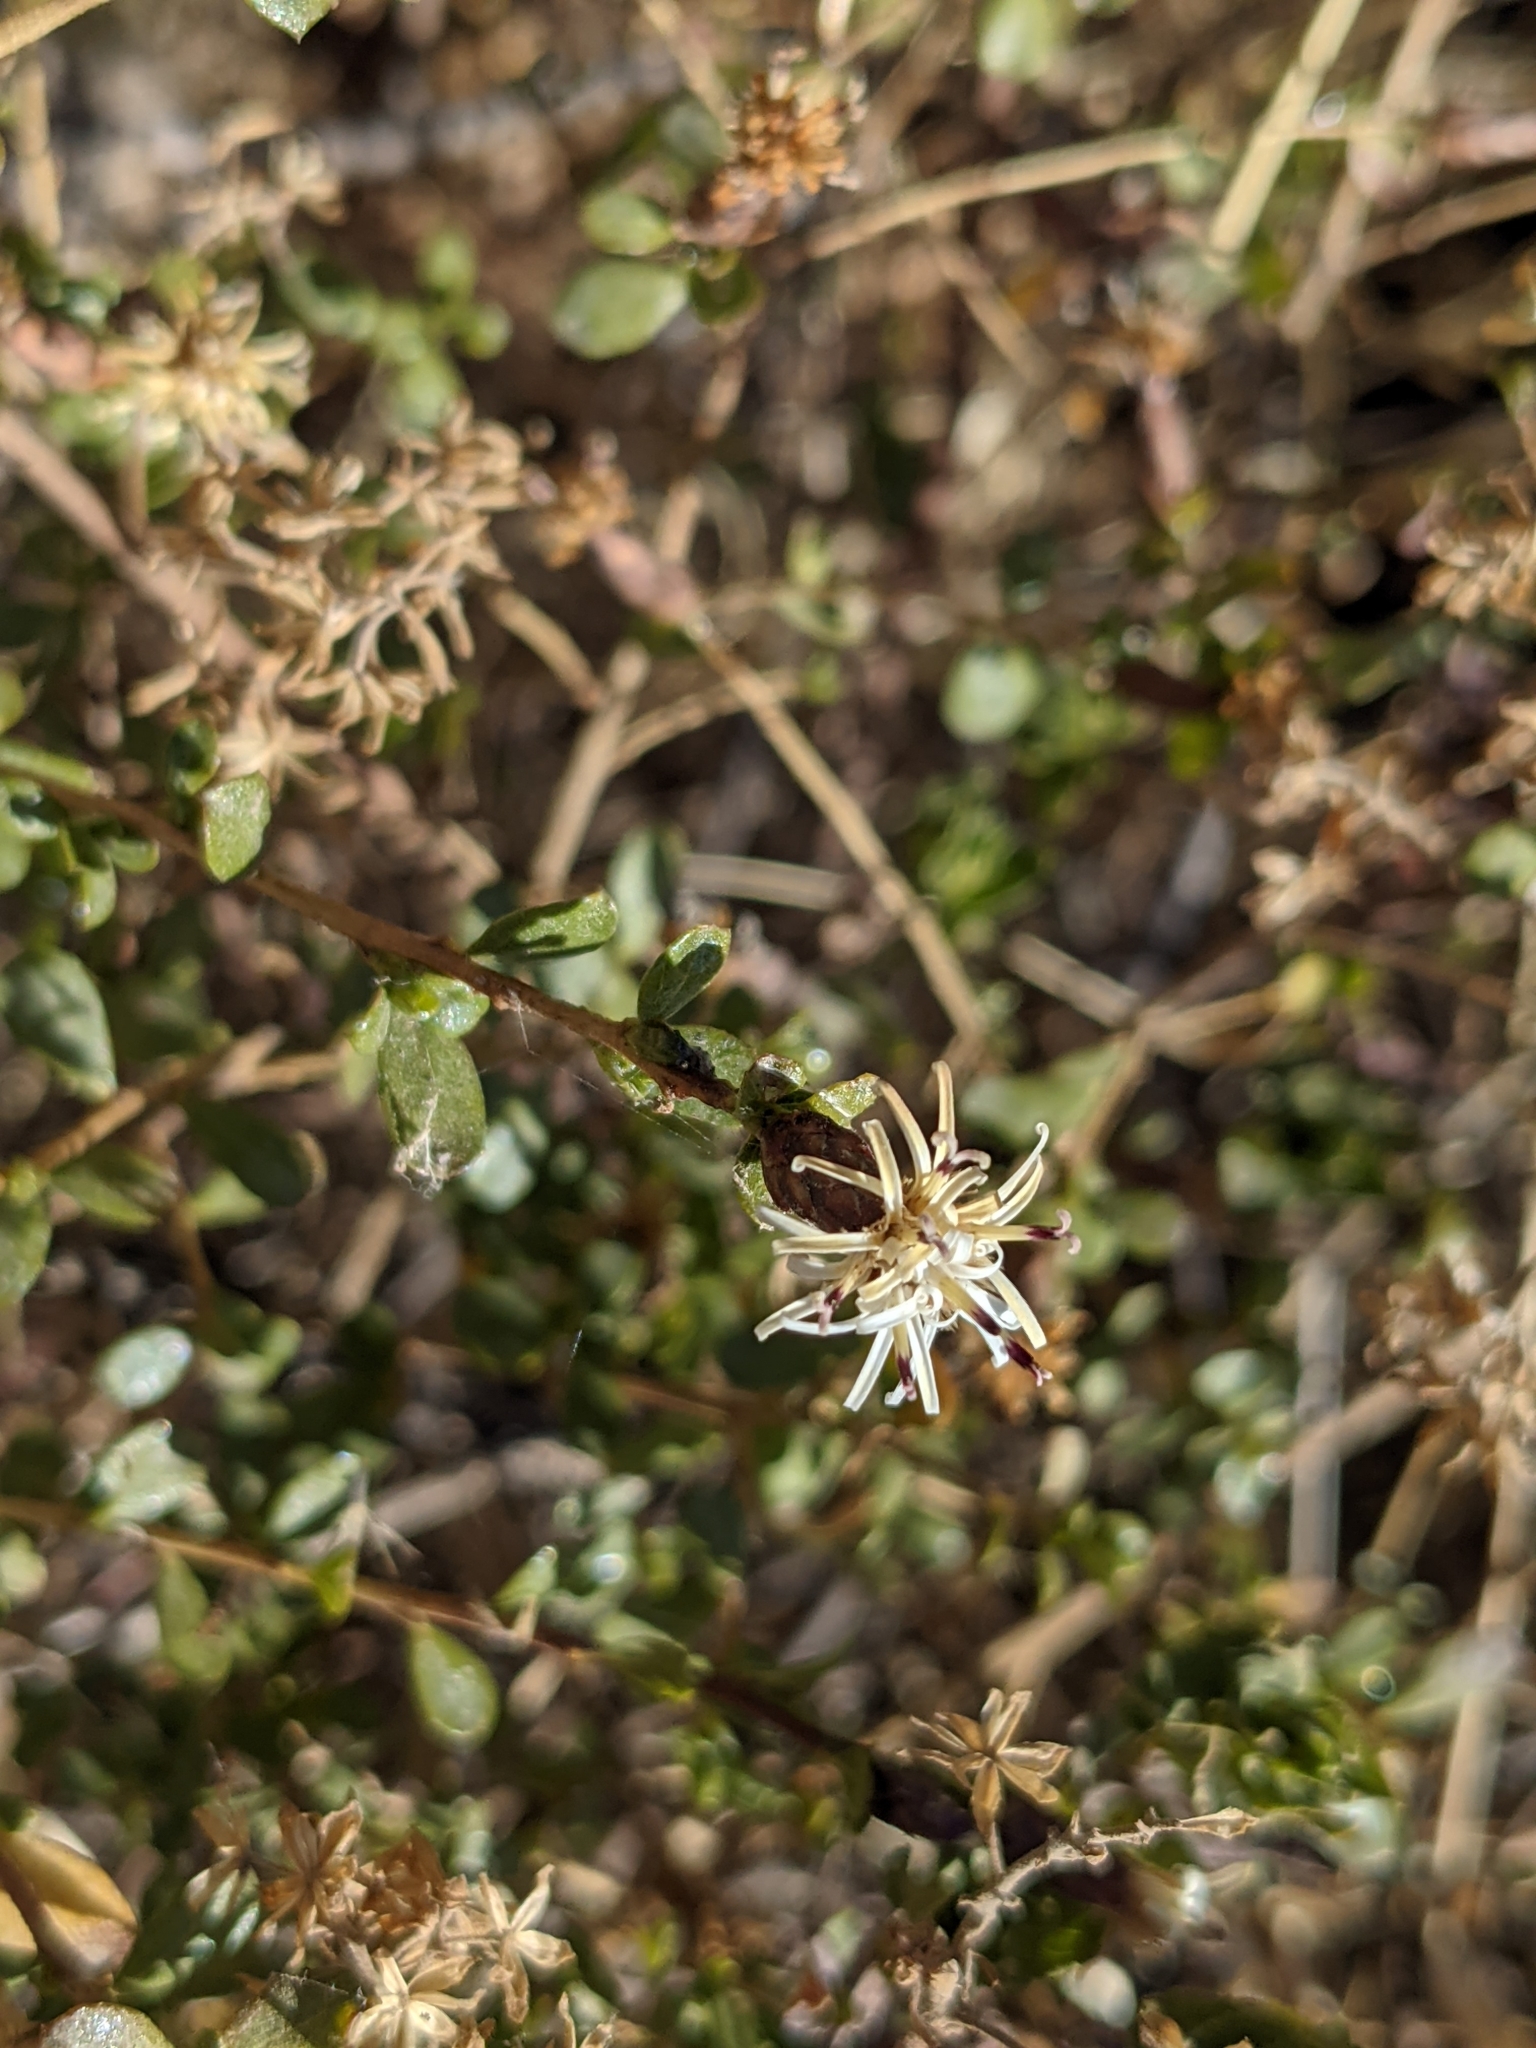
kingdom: Plantae
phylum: Tracheophyta
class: Magnoliopsida
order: Asterales
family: Asteraceae
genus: Proustia
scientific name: Proustia cuneifolia
